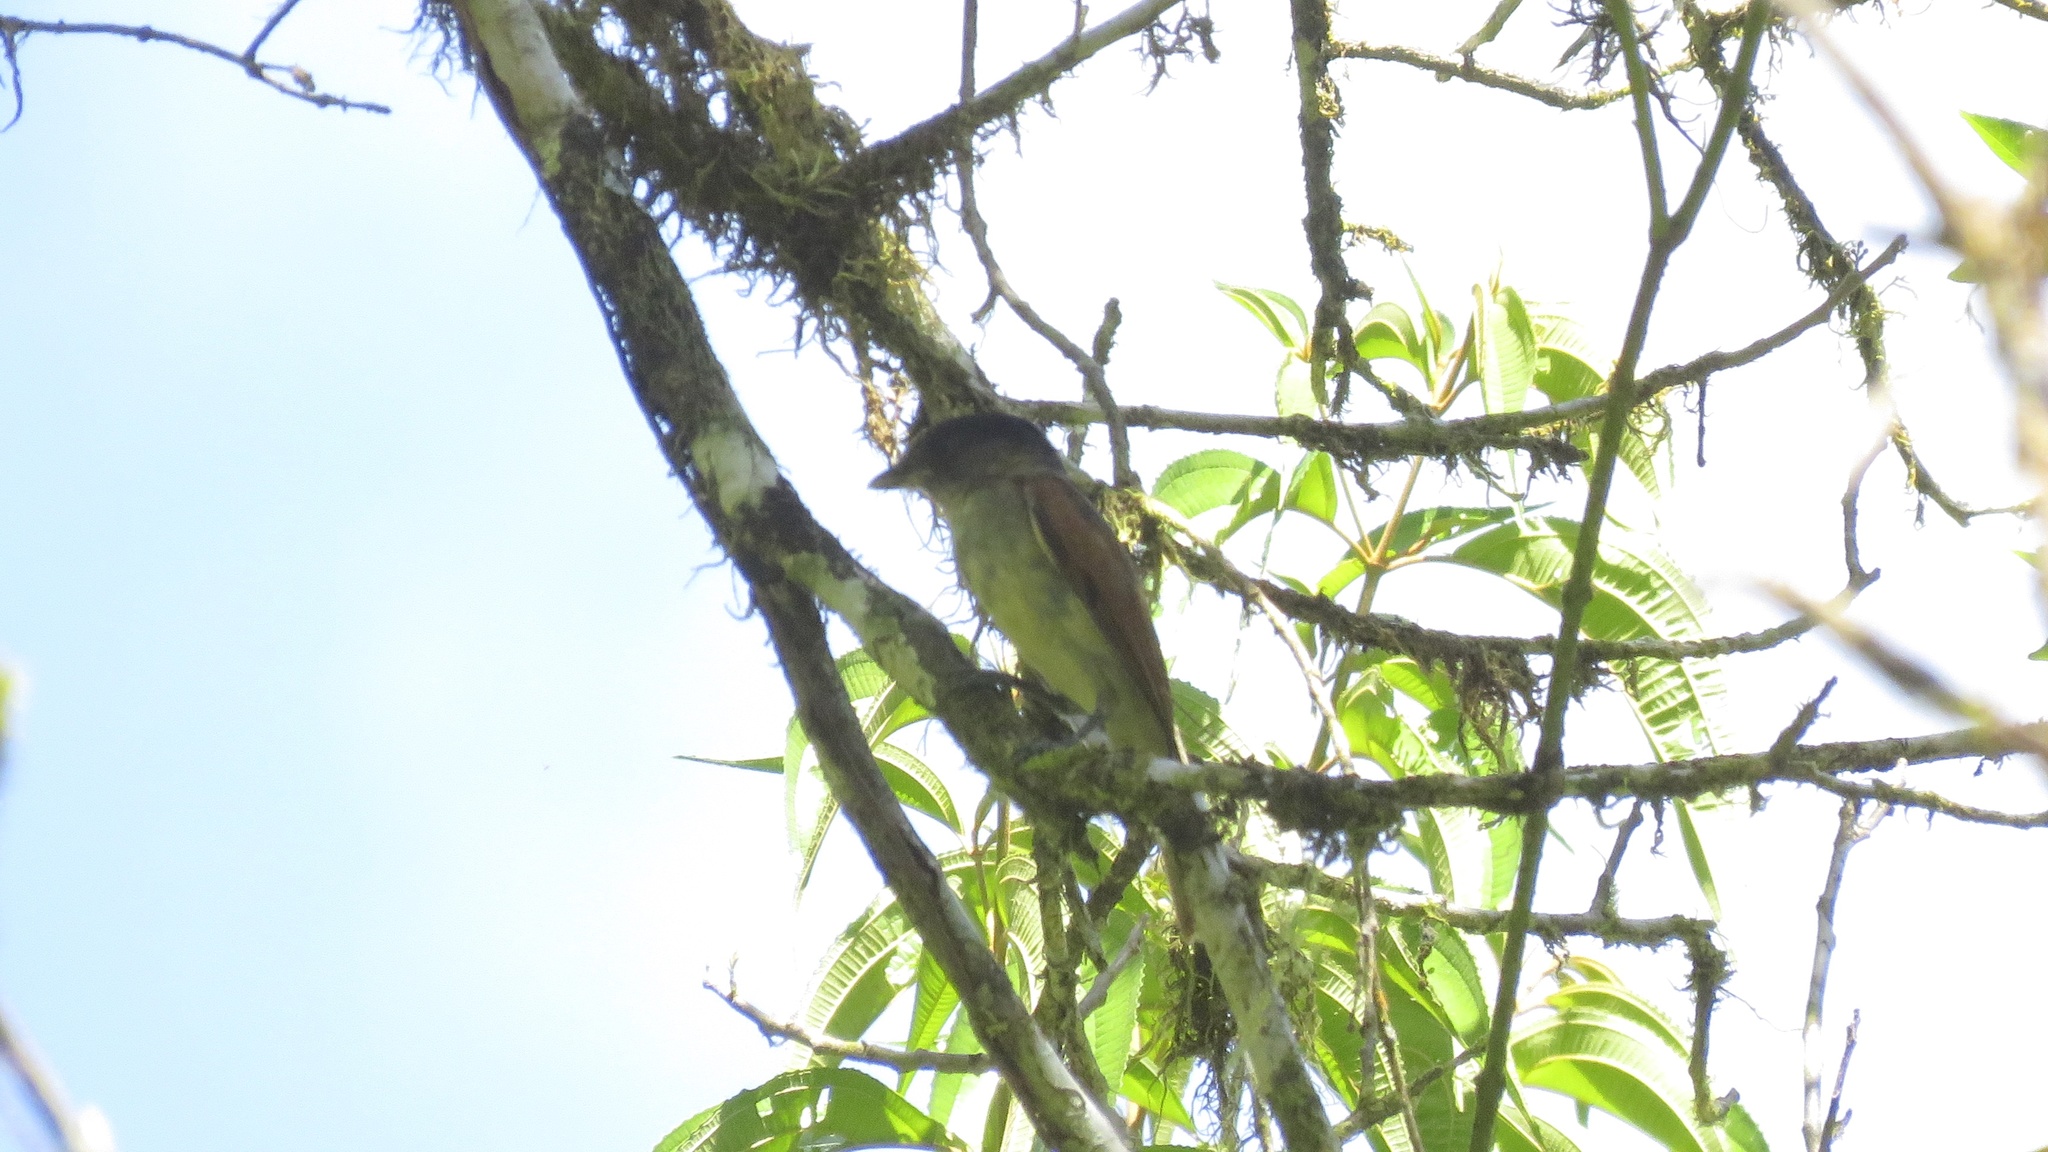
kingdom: Animalia
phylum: Chordata
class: Aves
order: Passeriformes
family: Cotingidae
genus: Pachyramphus
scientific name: Pachyramphus aglaiae
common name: Rose-throated becard
